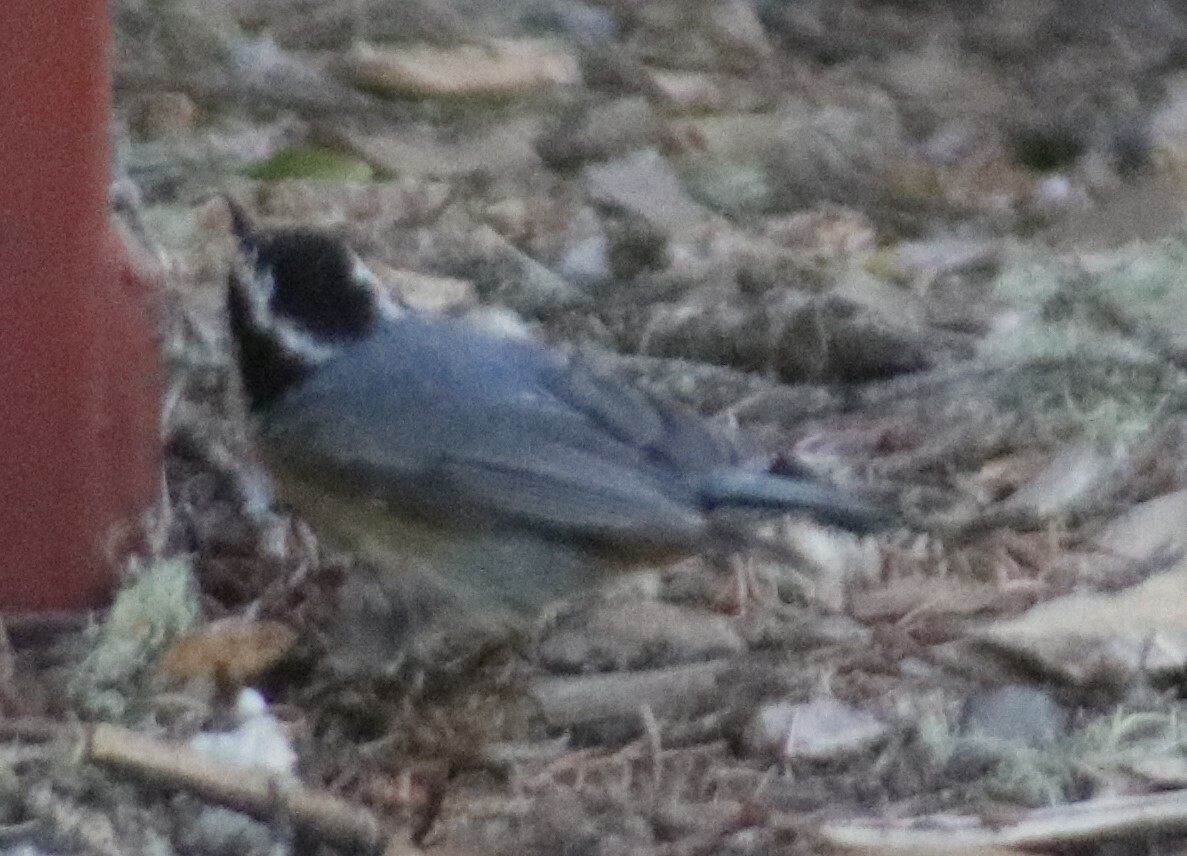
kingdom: Animalia
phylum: Chordata
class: Aves
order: Passeriformes
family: Sittidae
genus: Sitta
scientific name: Sitta canadensis
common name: Red-breasted nuthatch
